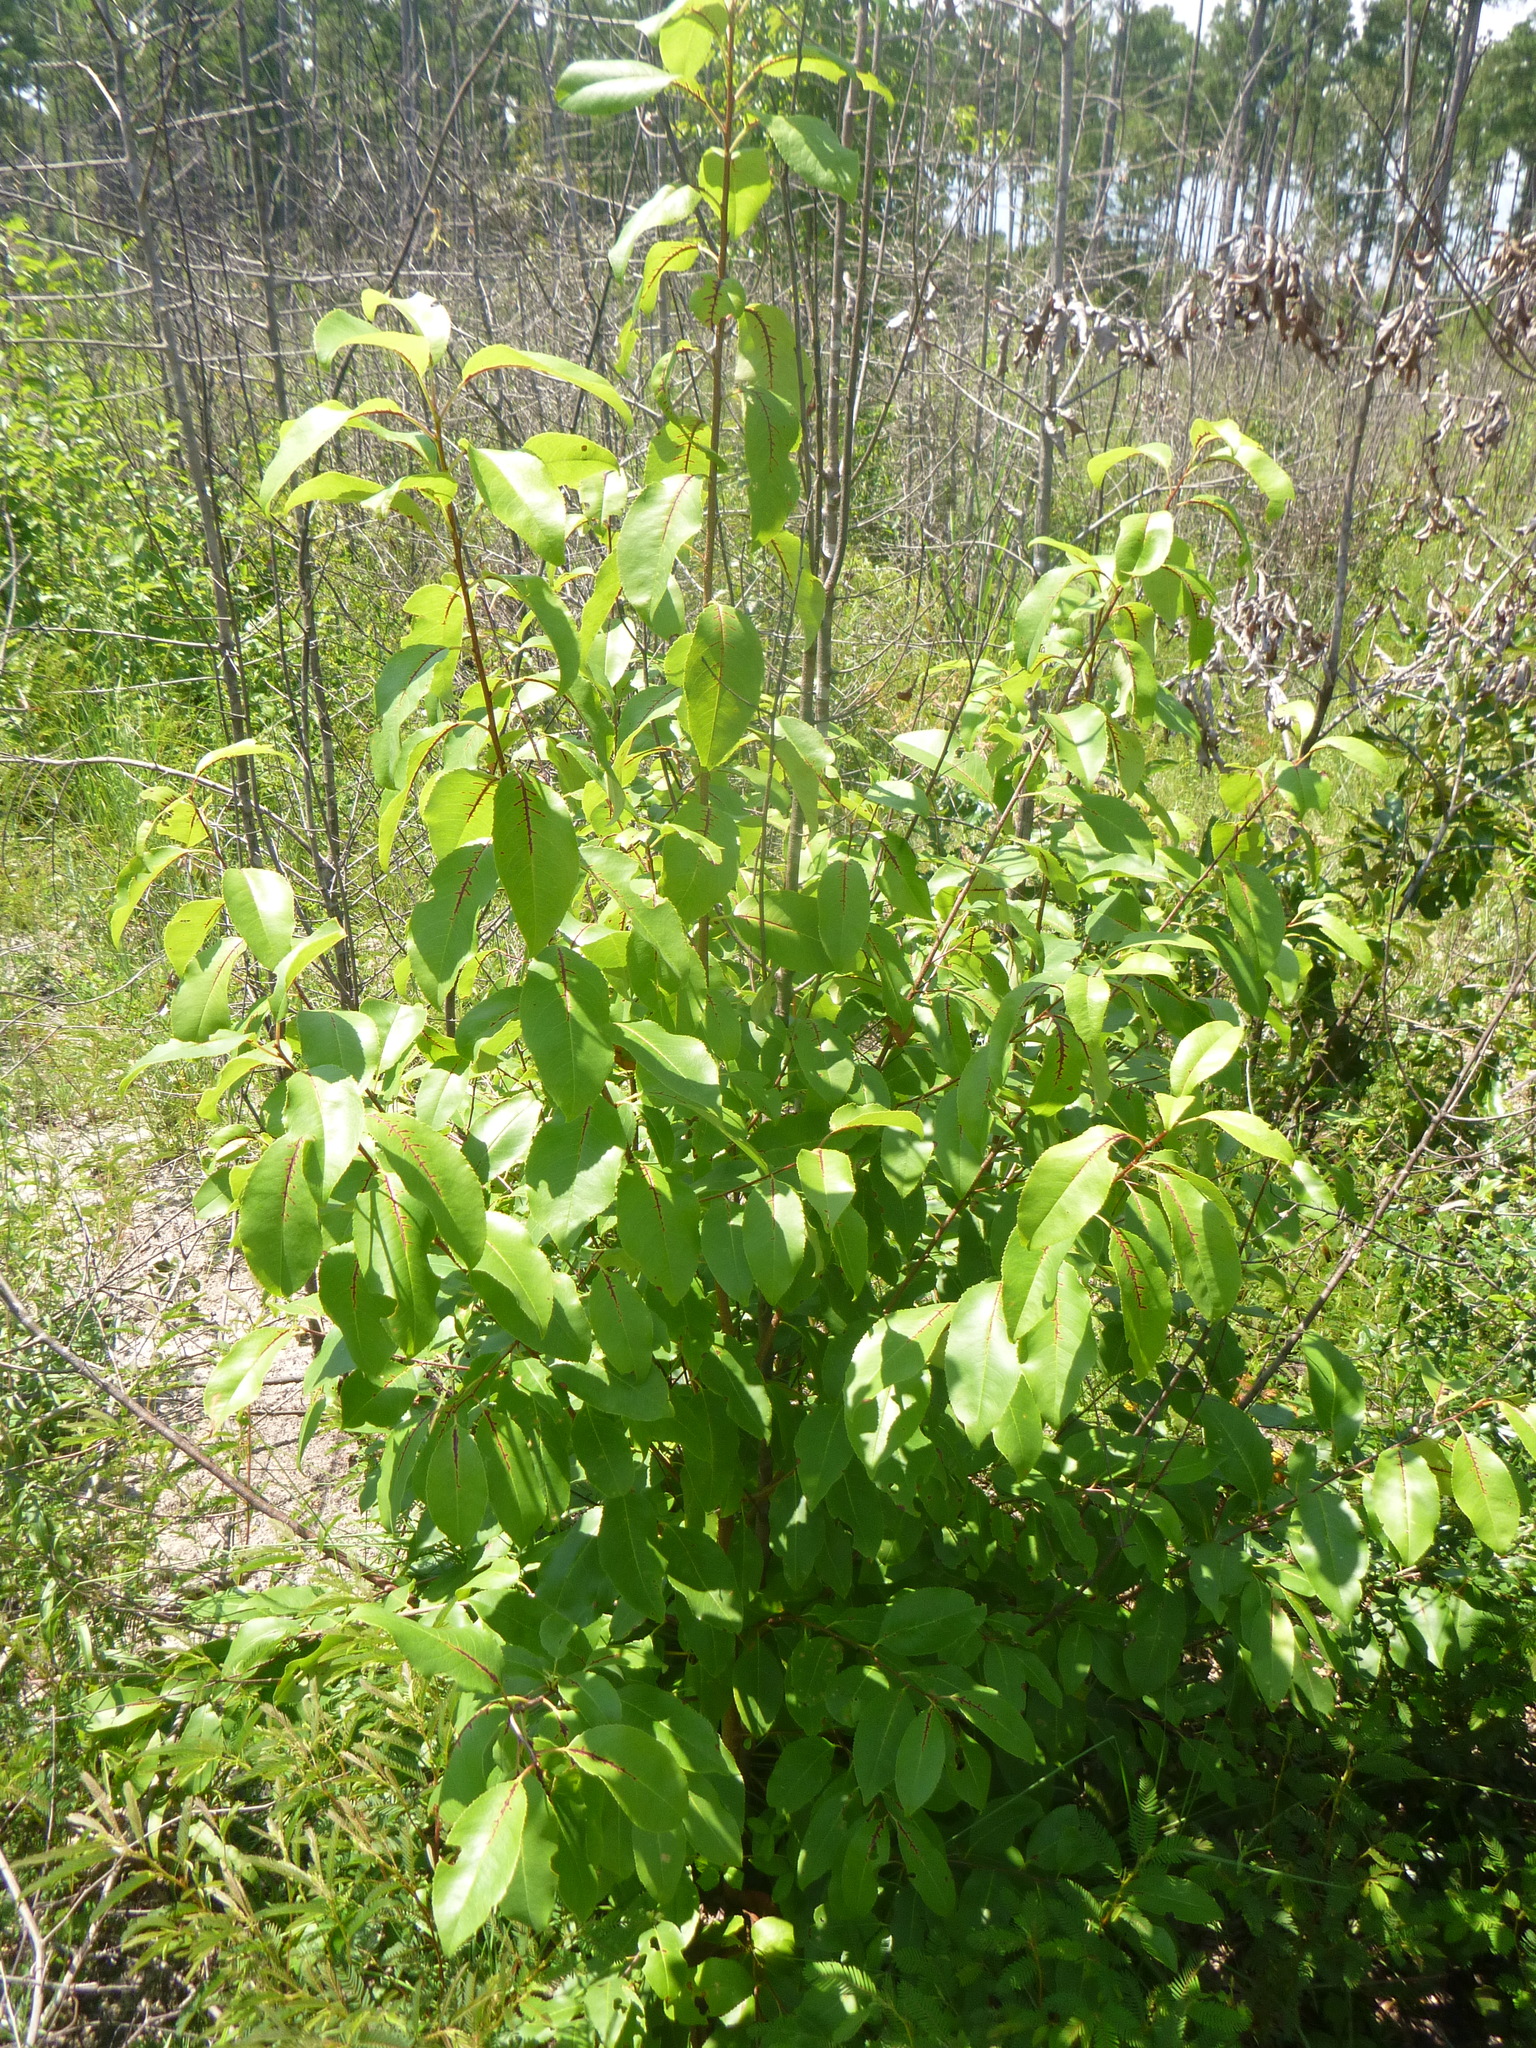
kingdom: Plantae
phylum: Tracheophyta
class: Magnoliopsida
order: Rosales
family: Rosaceae
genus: Prunus
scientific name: Prunus serotina
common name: Black cherry
